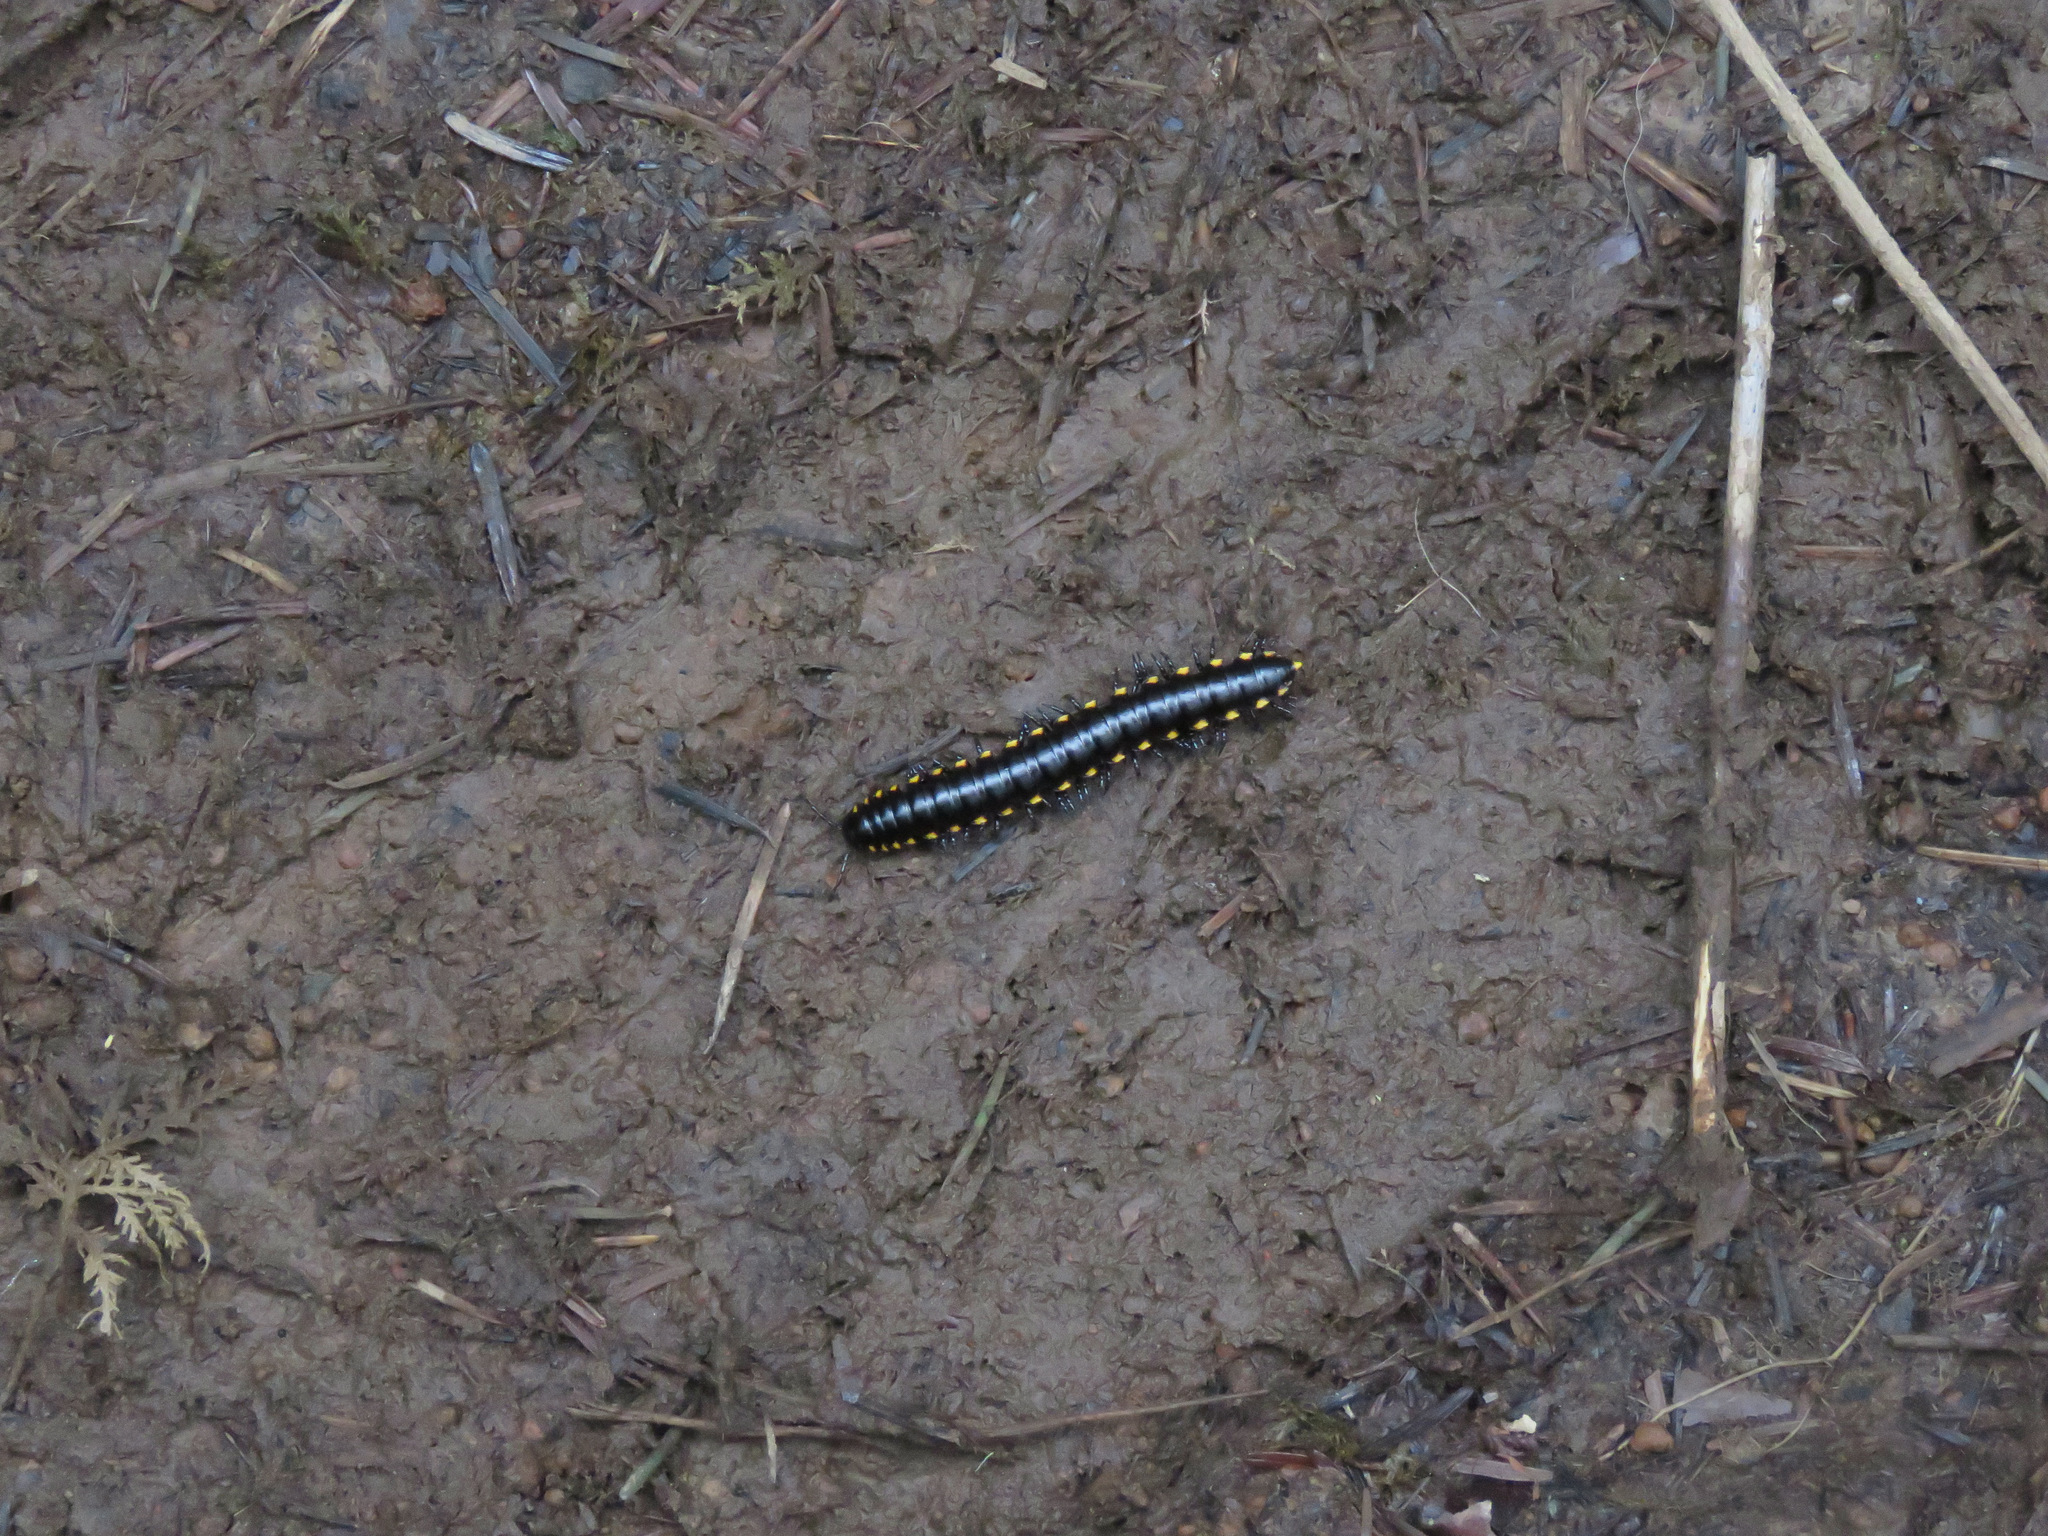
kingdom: Animalia
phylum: Arthropoda
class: Diplopoda
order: Polydesmida
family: Xystodesmidae
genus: Harpaphe
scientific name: Harpaphe haydeniana
